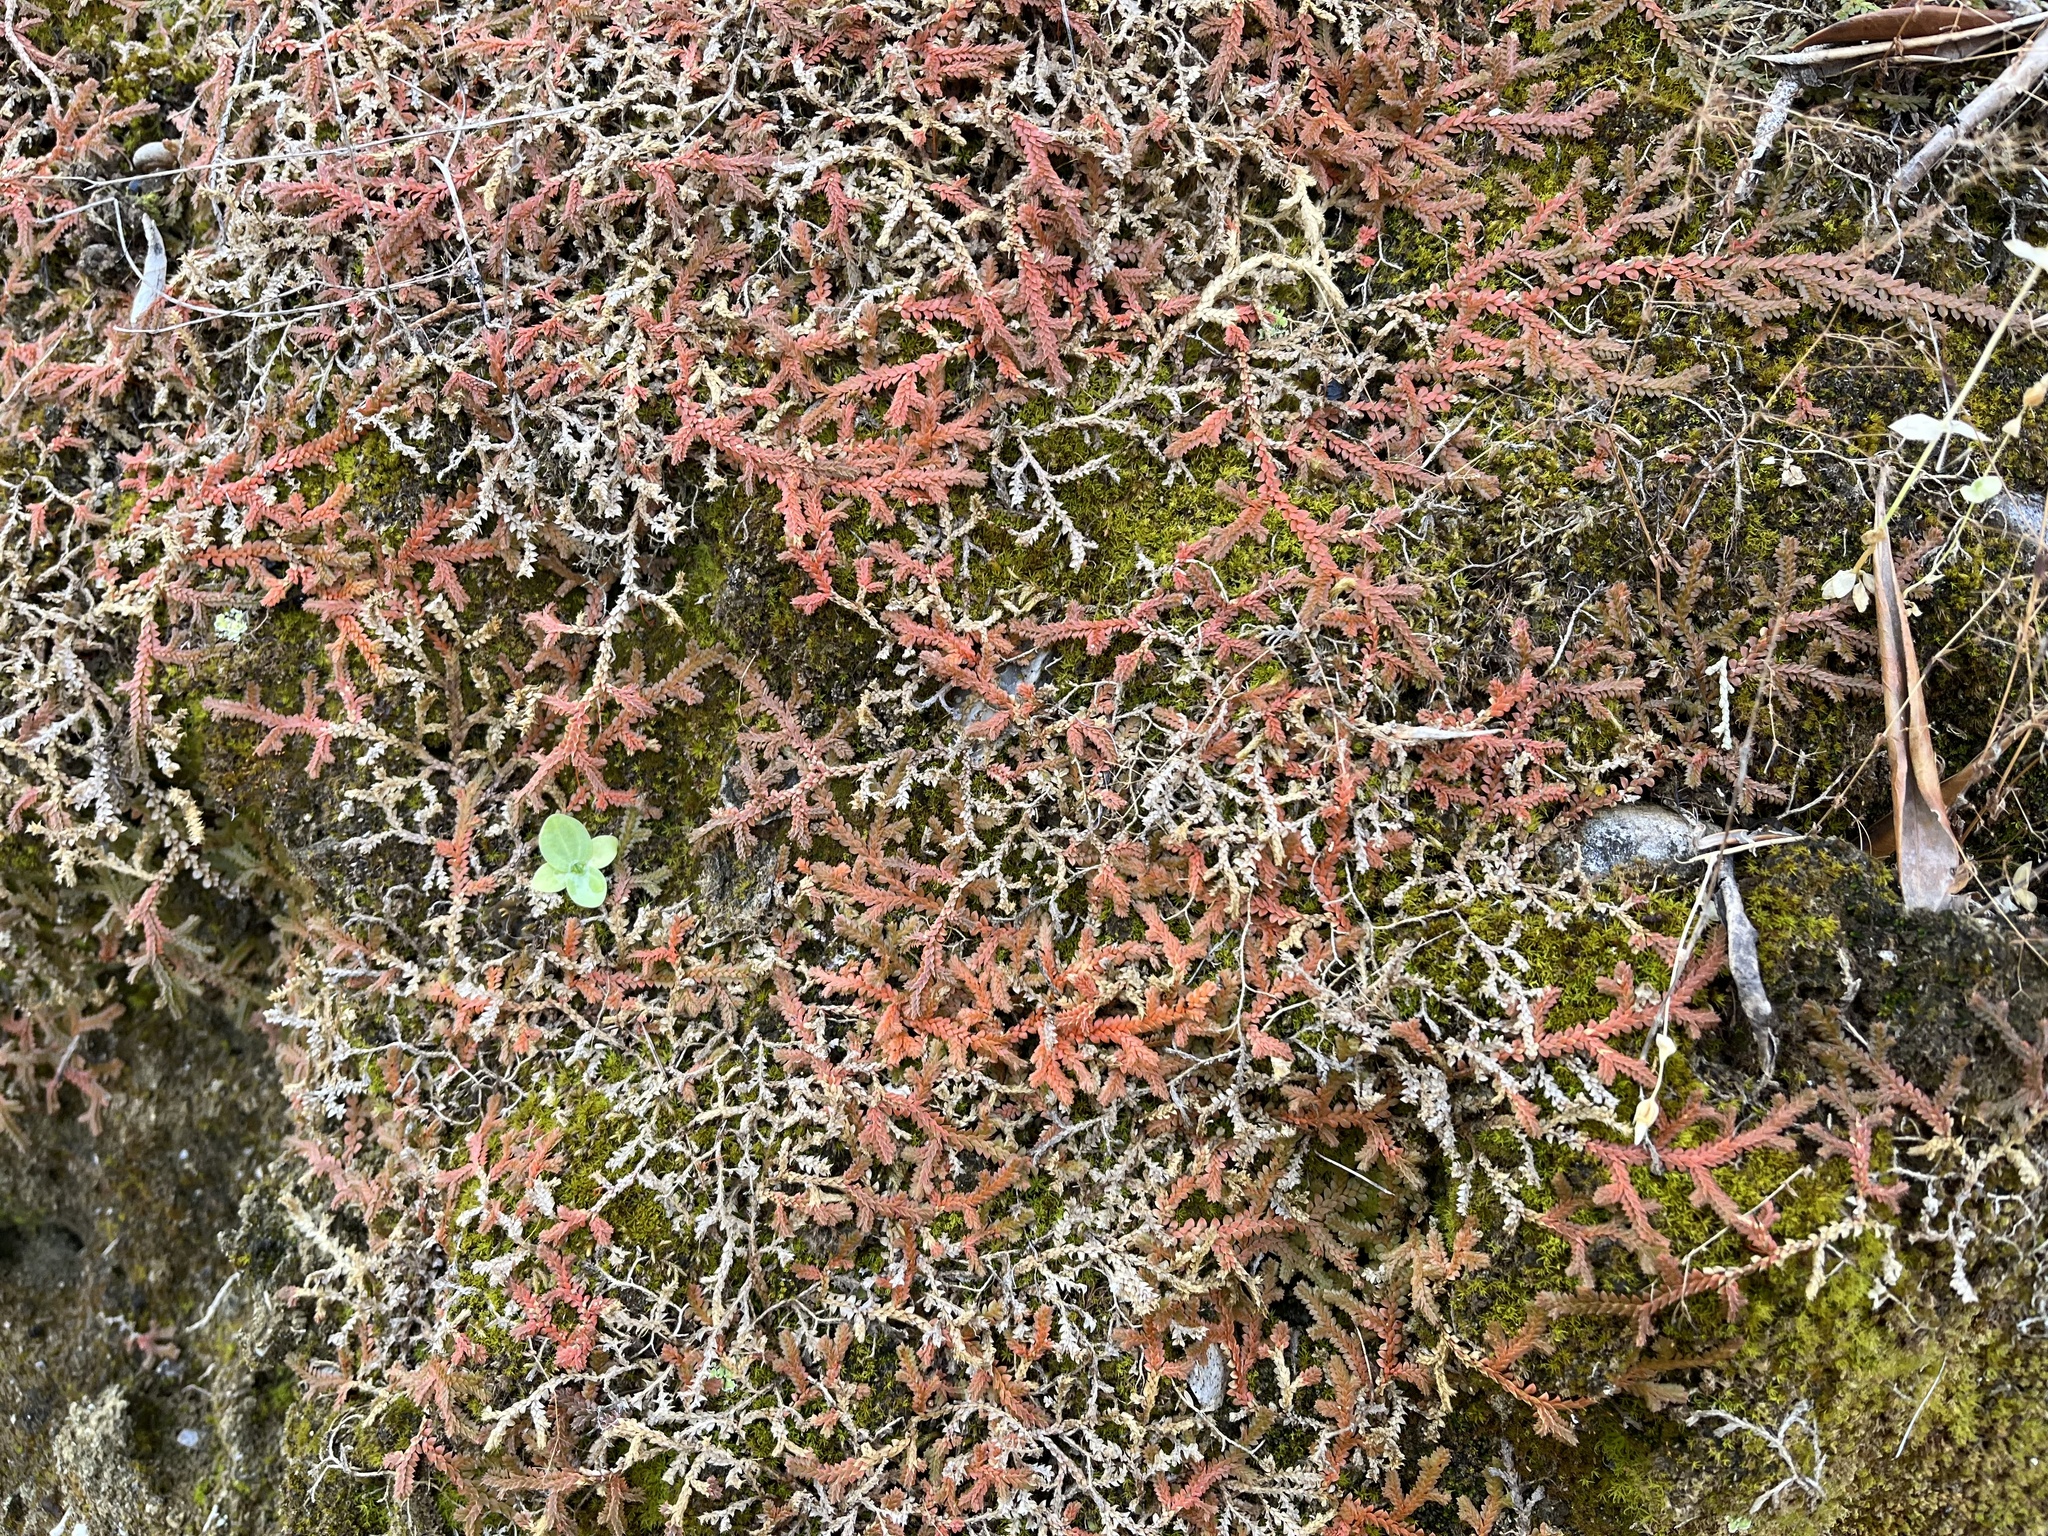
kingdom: Plantae
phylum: Tracheophyta
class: Lycopodiopsida
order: Selaginellales
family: Selaginellaceae
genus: Selaginella
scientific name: Selaginella denticulata
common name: Toothed-leaved clubmoss
